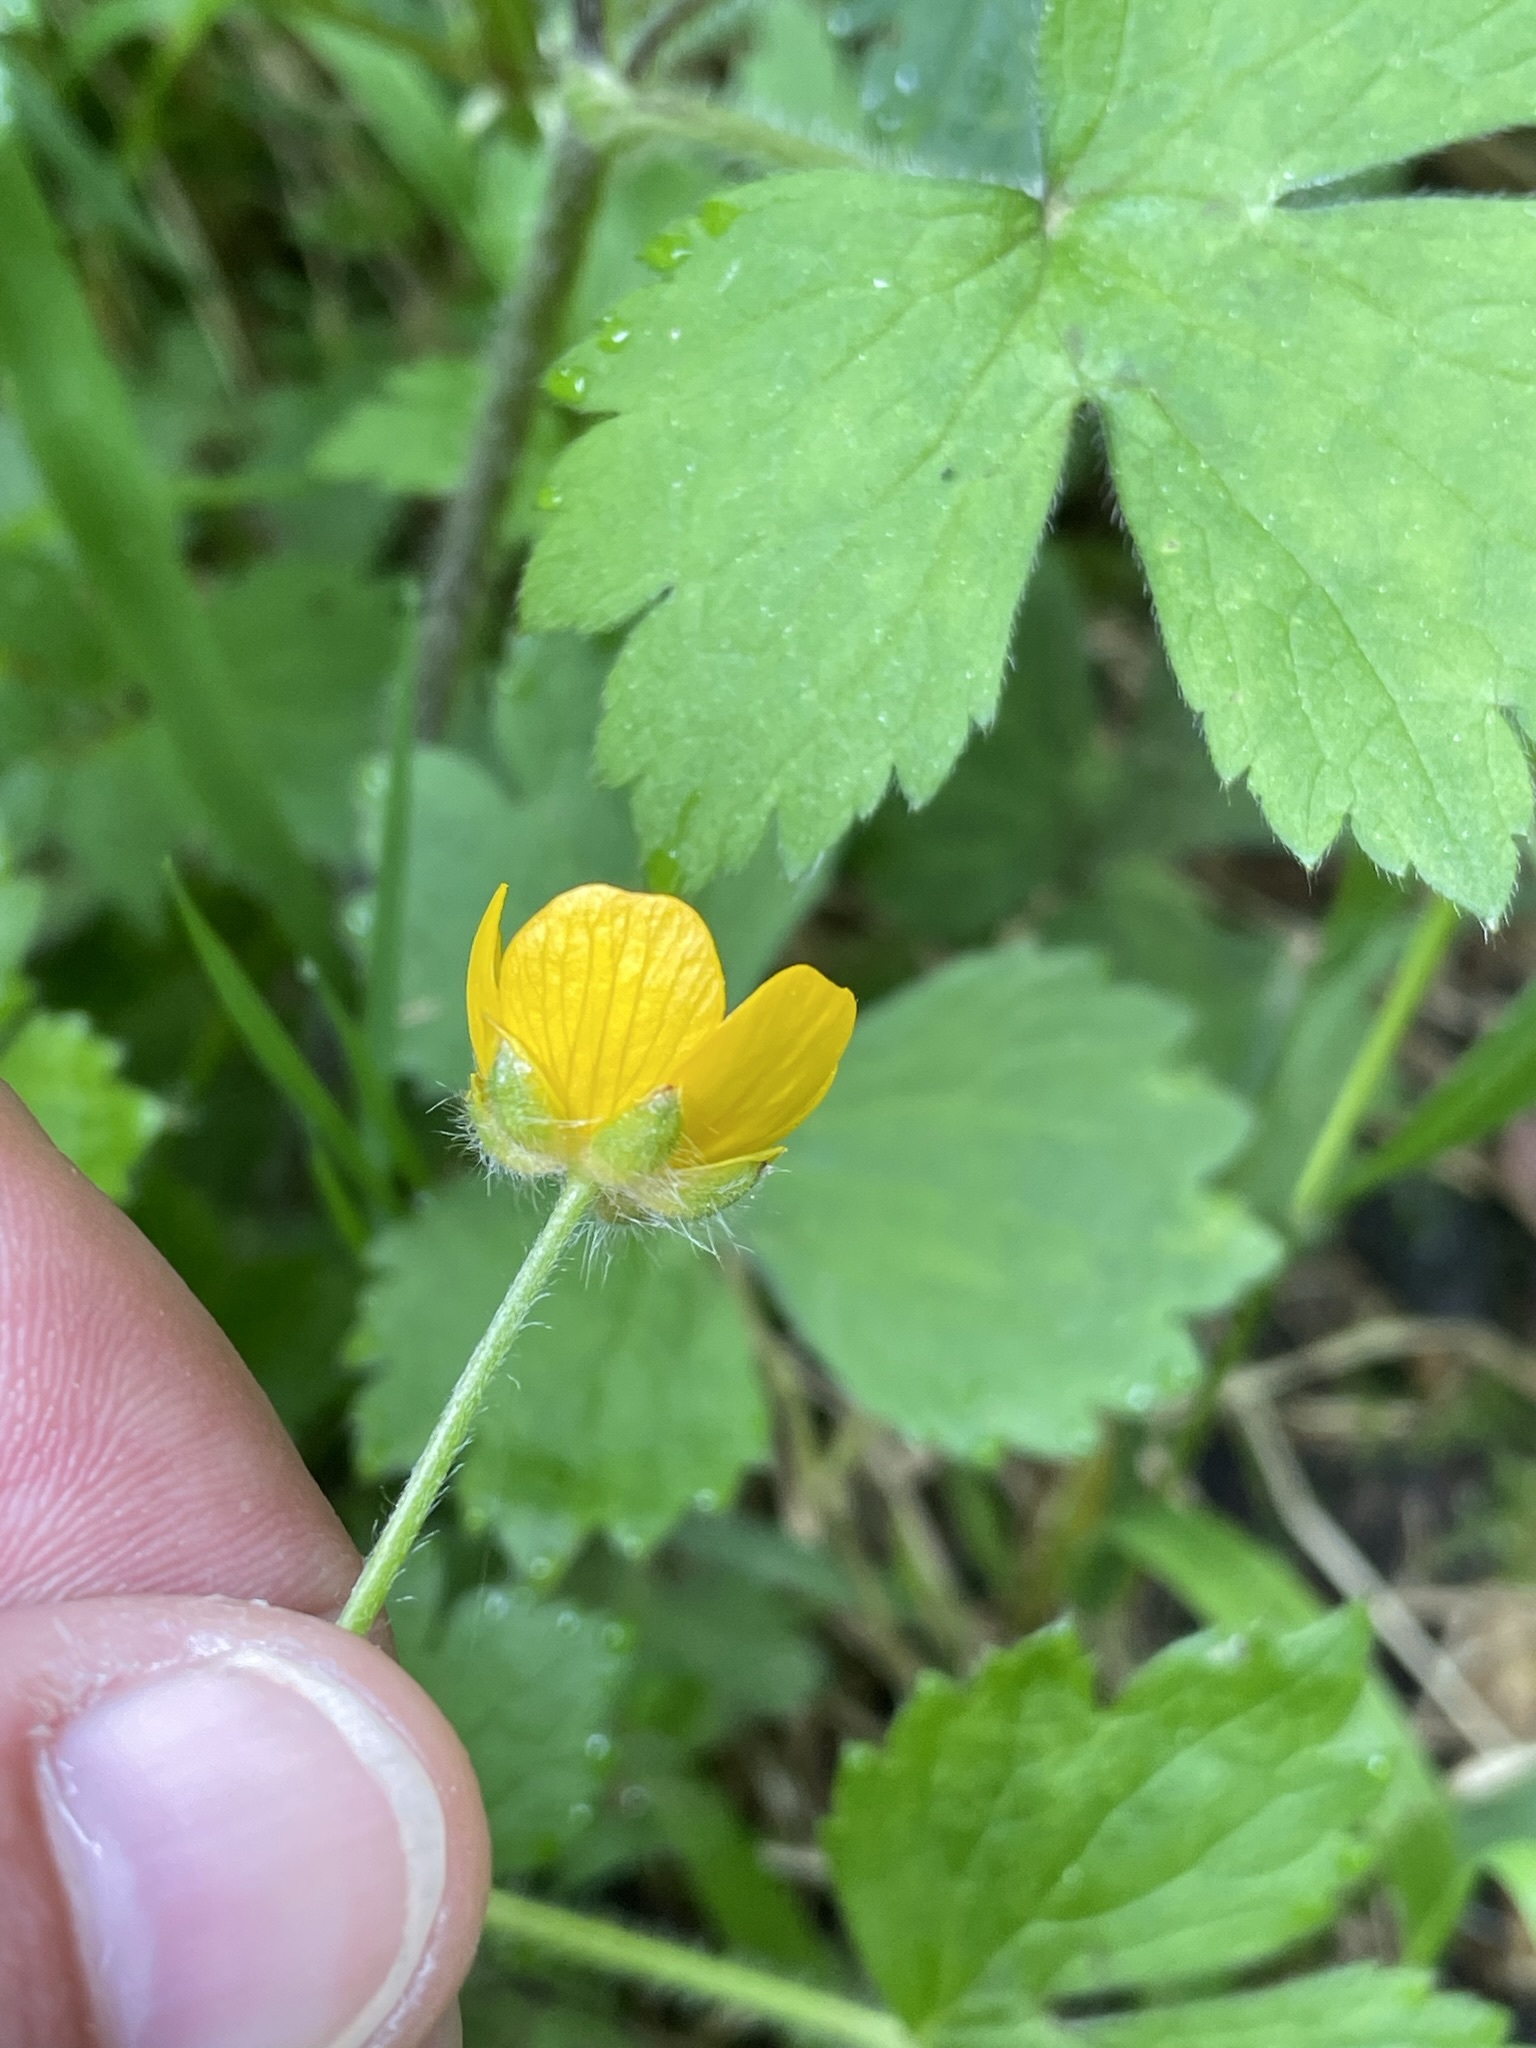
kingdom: Plantae
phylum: Tracheophyta
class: Magnoliopsida
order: Ranunculales
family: Ranunculaceae
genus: Ranunculus
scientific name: Ranunculus lanuginosus
